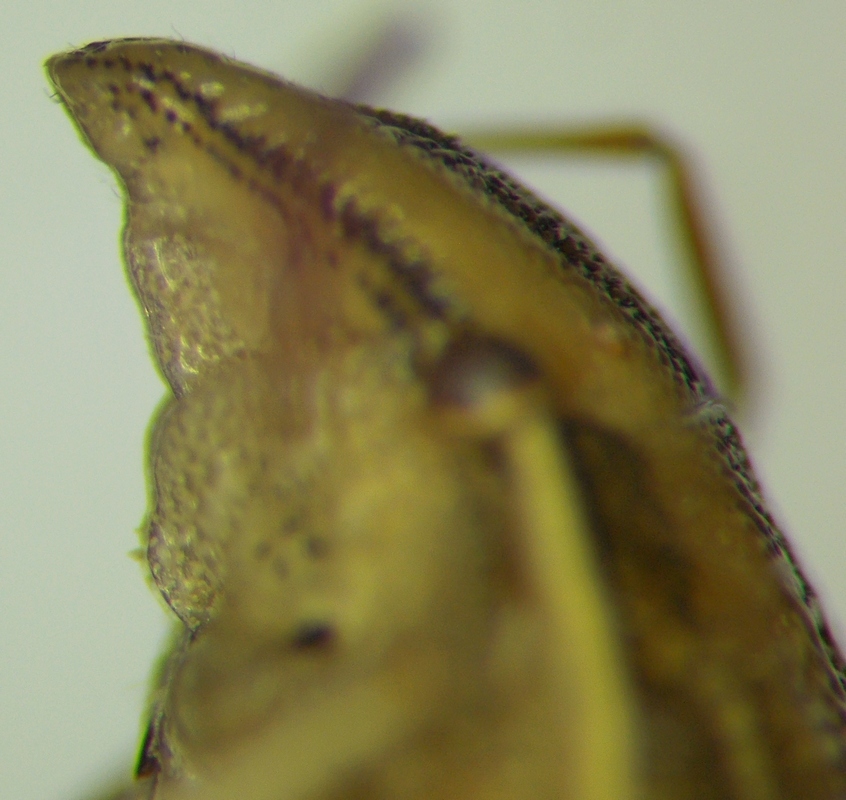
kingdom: Animalia
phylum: Arthropoda
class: Insecta
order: Hemiptera
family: Pentatomidae
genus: Aelia
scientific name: Aelia acuminata
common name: Bishop's mitre
